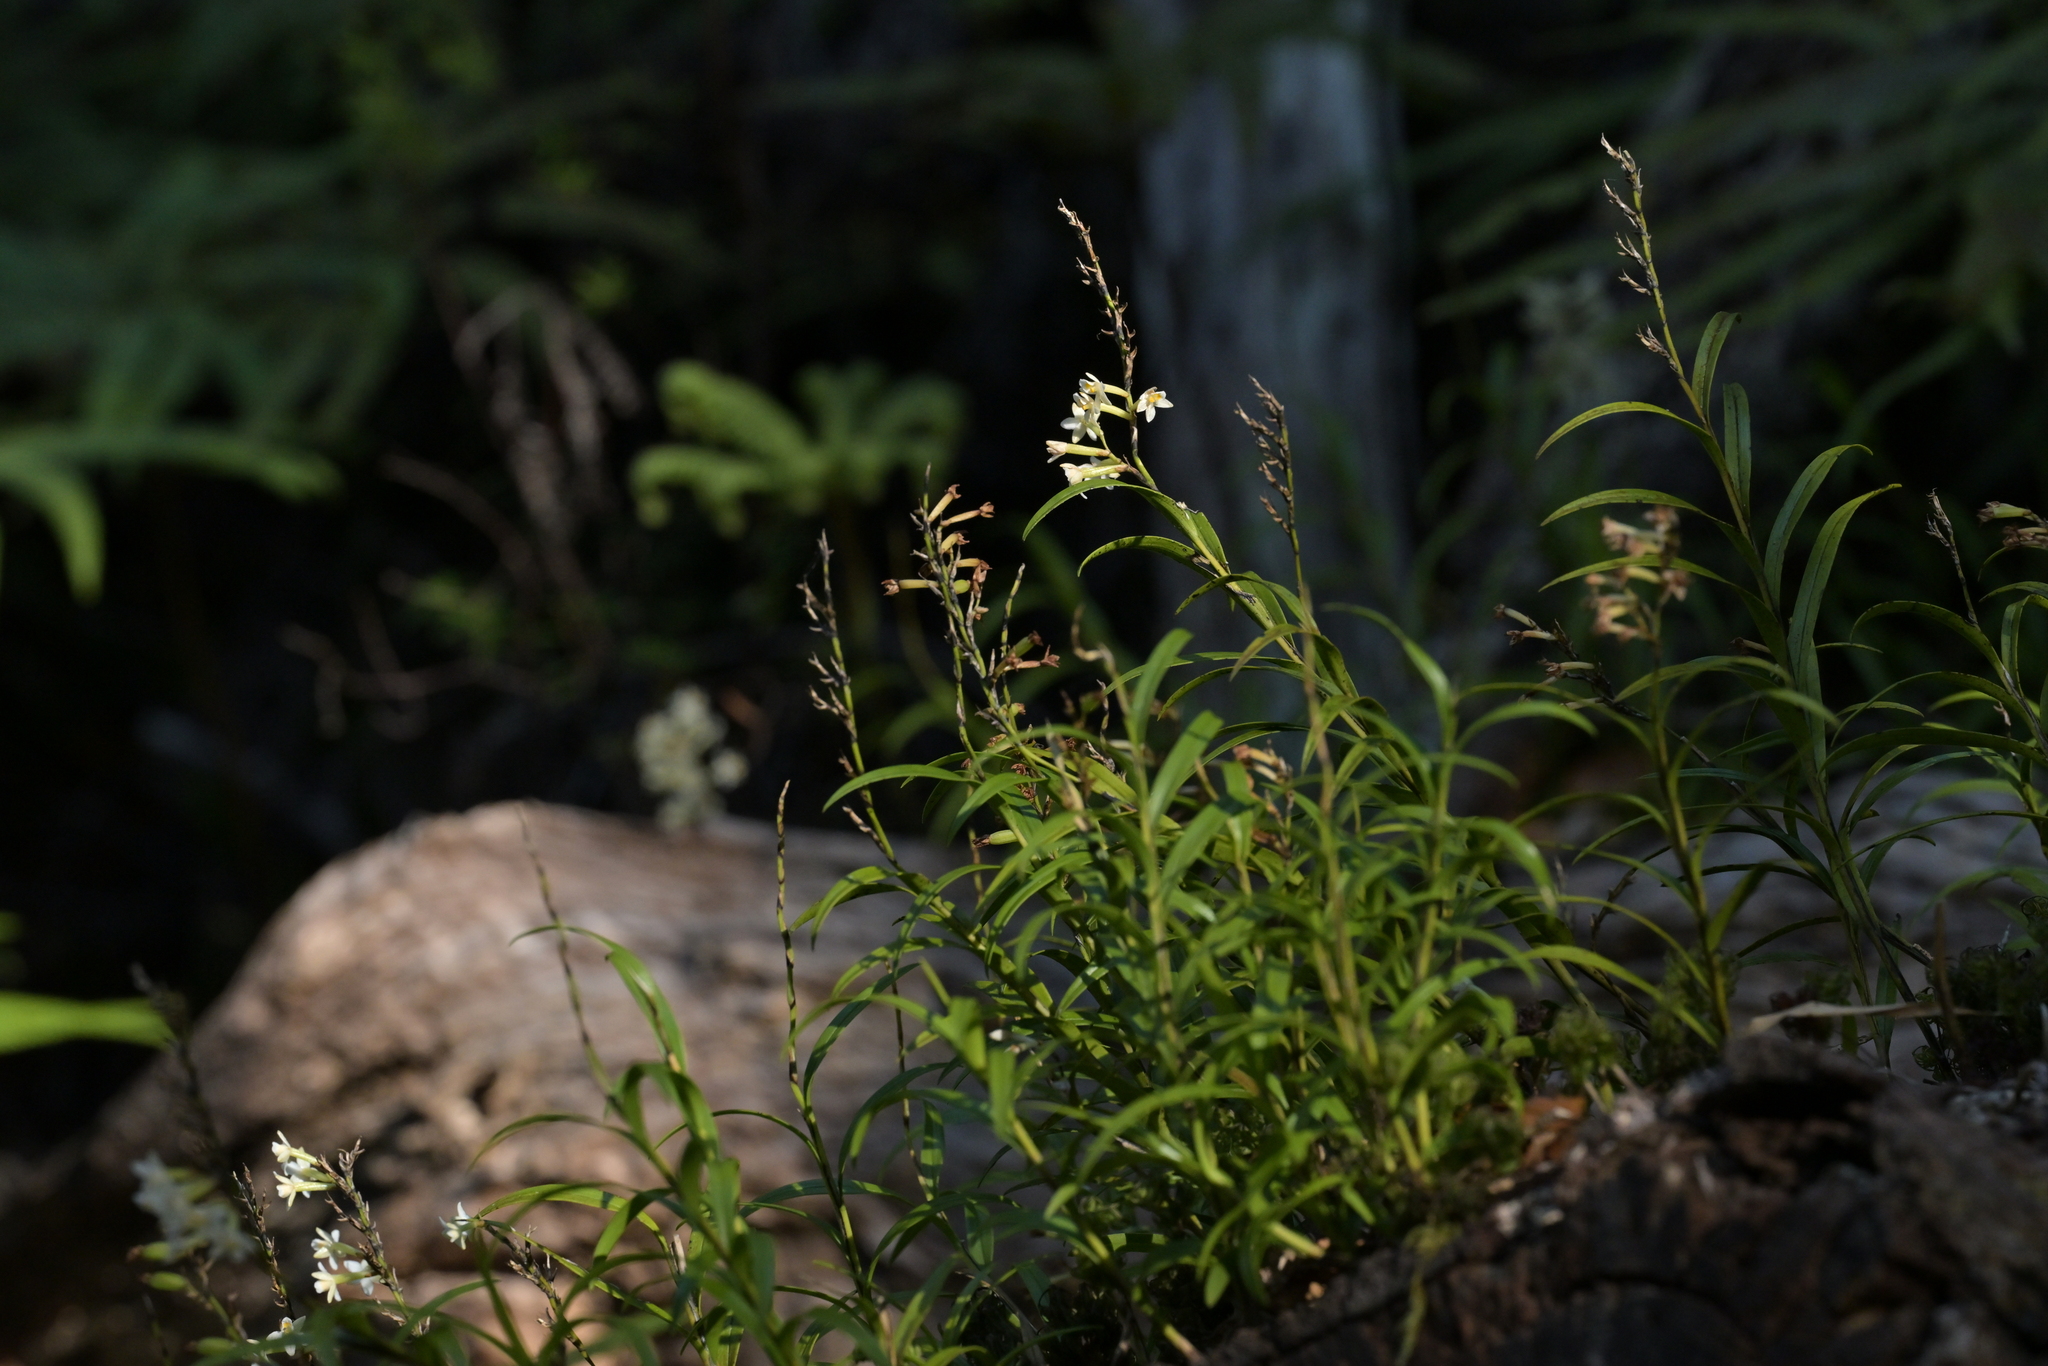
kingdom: Plantae
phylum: Tracheophyta
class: Liliopsida
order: Asparagales
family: Orchidaceae
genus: Earina
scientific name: Earina autumnalis
